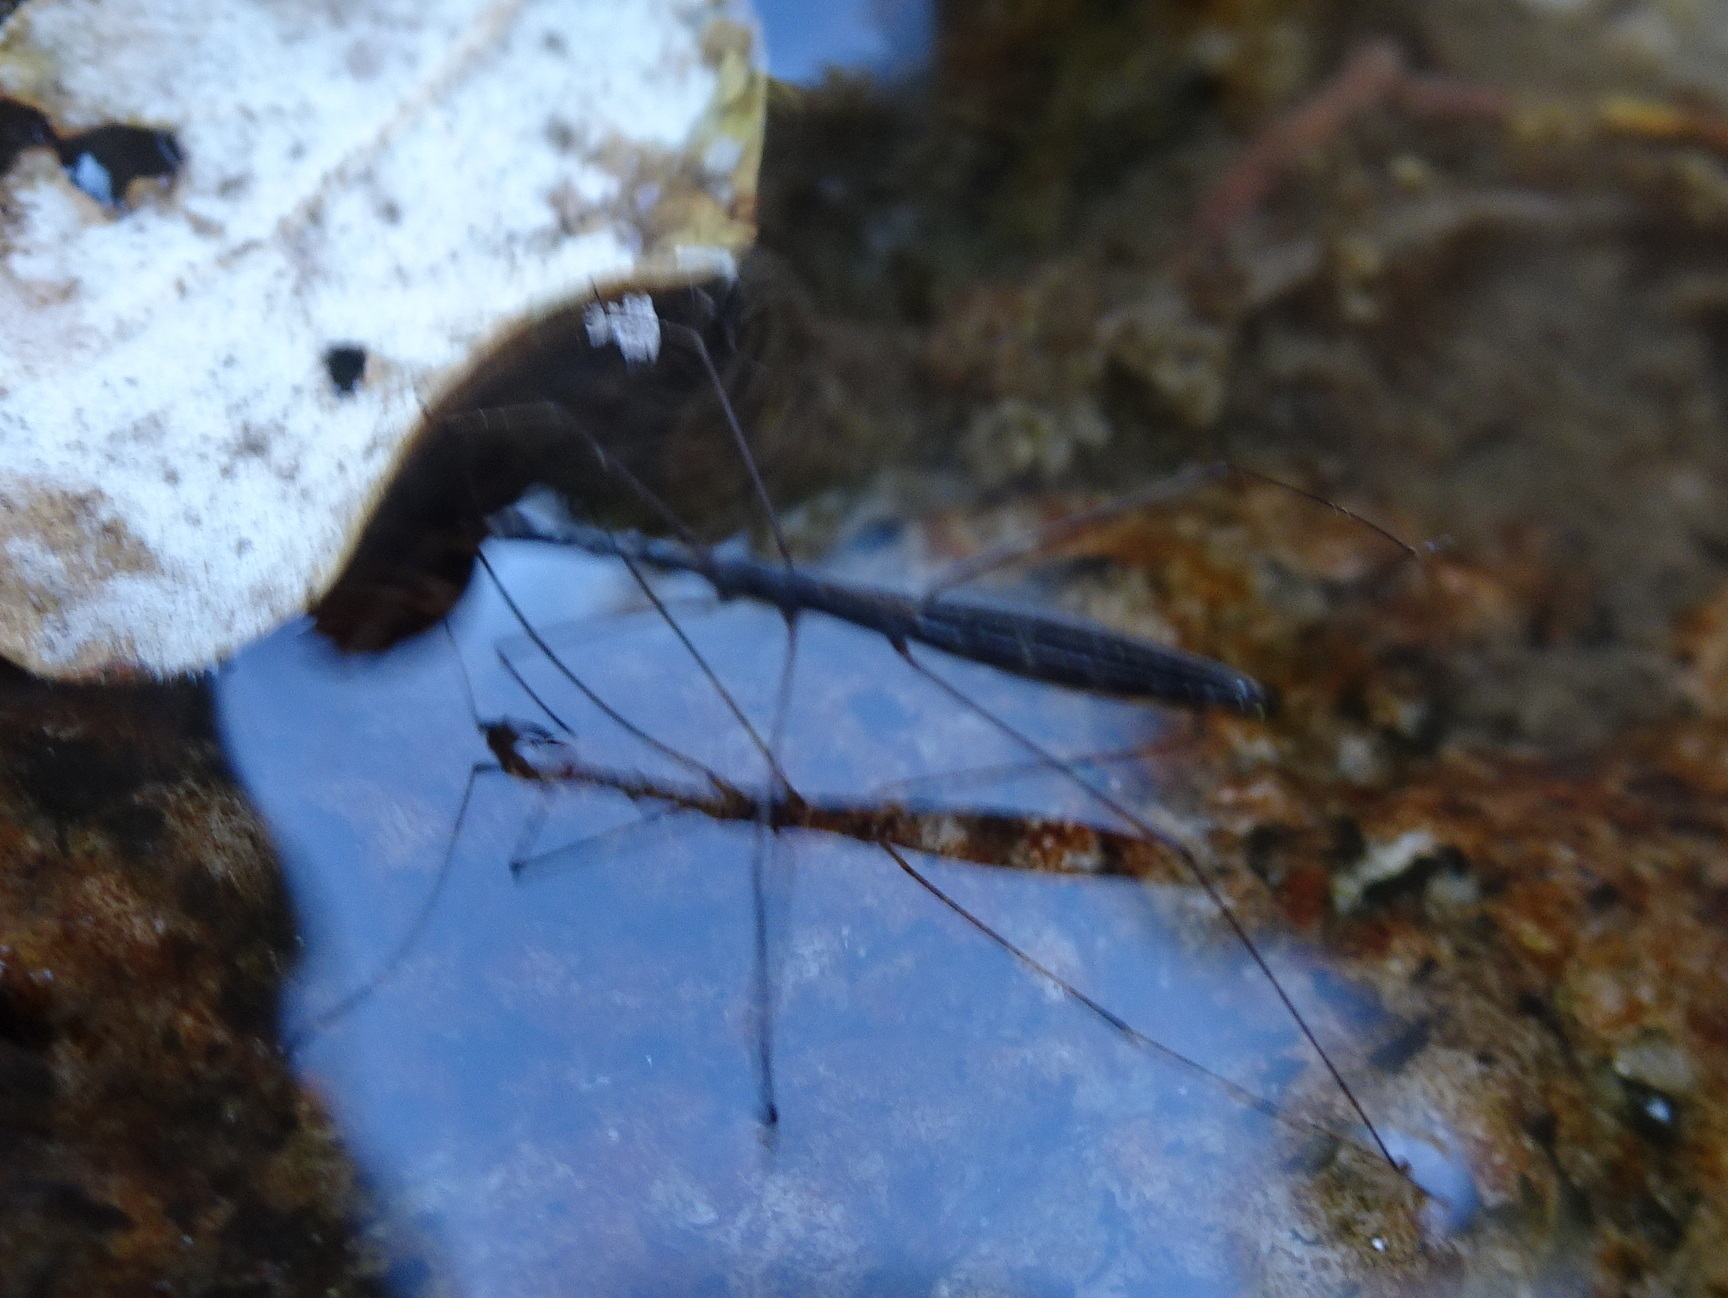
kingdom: Animalia
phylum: Arthropoda
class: Insecta
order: Hemiptera
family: Hydrometridae
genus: Hydrometra
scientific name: Hydrometra stagnorum
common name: Water measurer
